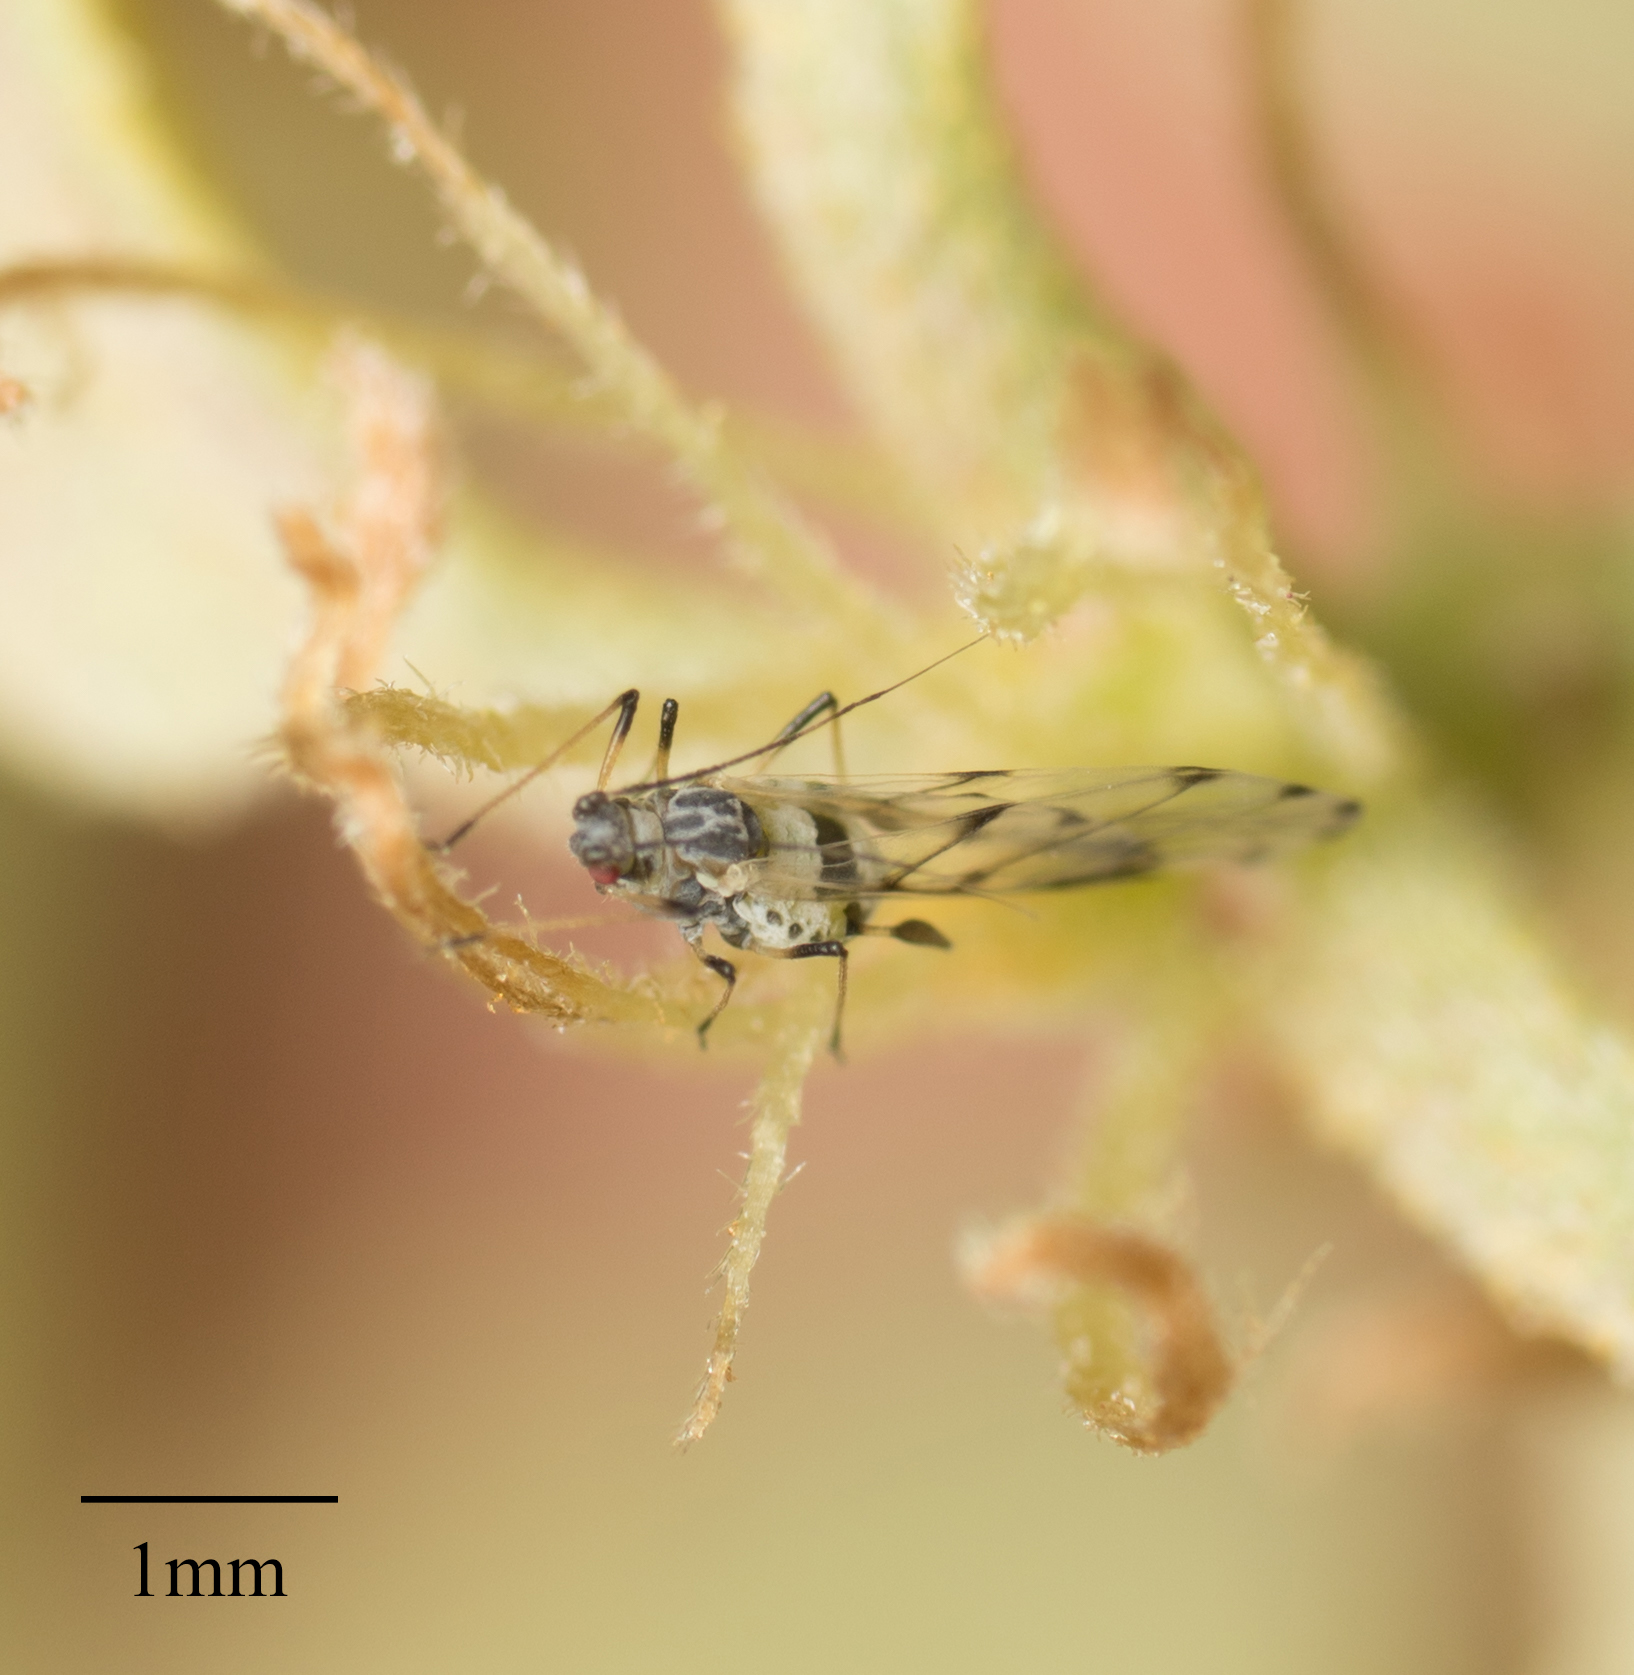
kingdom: Animalia
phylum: Arthropoda
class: Insecta
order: Hemiptera
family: Aphididae
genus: Eucarazzia
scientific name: Eucarazzia elegans
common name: Mint aphid
